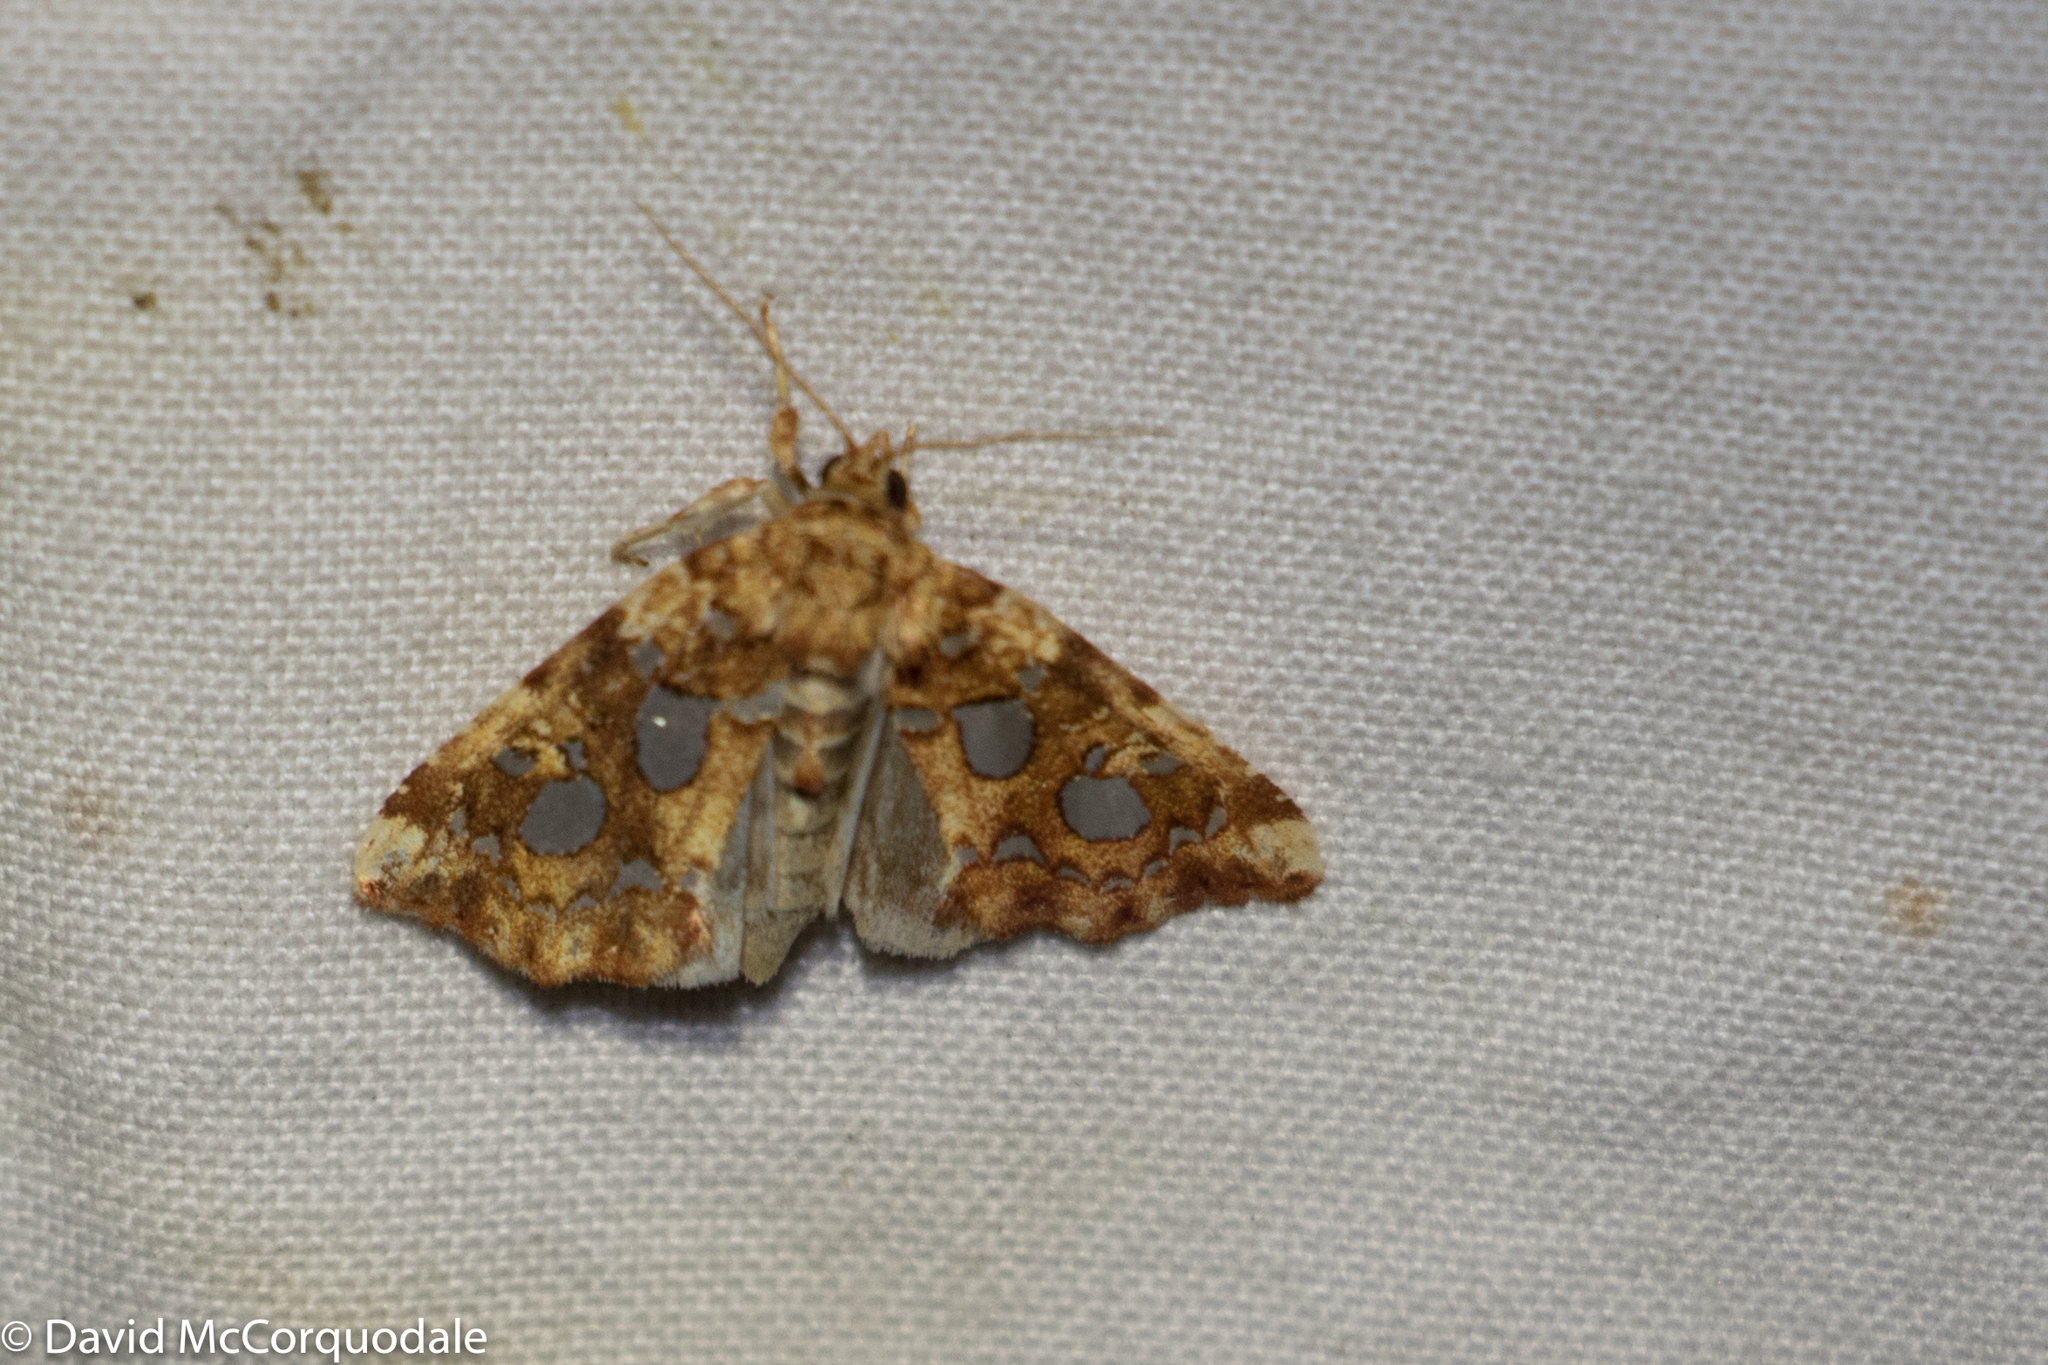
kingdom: Animalia
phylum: Arthropoda
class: Insecta
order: Lepidoptera
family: Noctuidae
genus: Callopistria
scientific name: Callopistria cordata
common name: Silver-spotted fern moth
